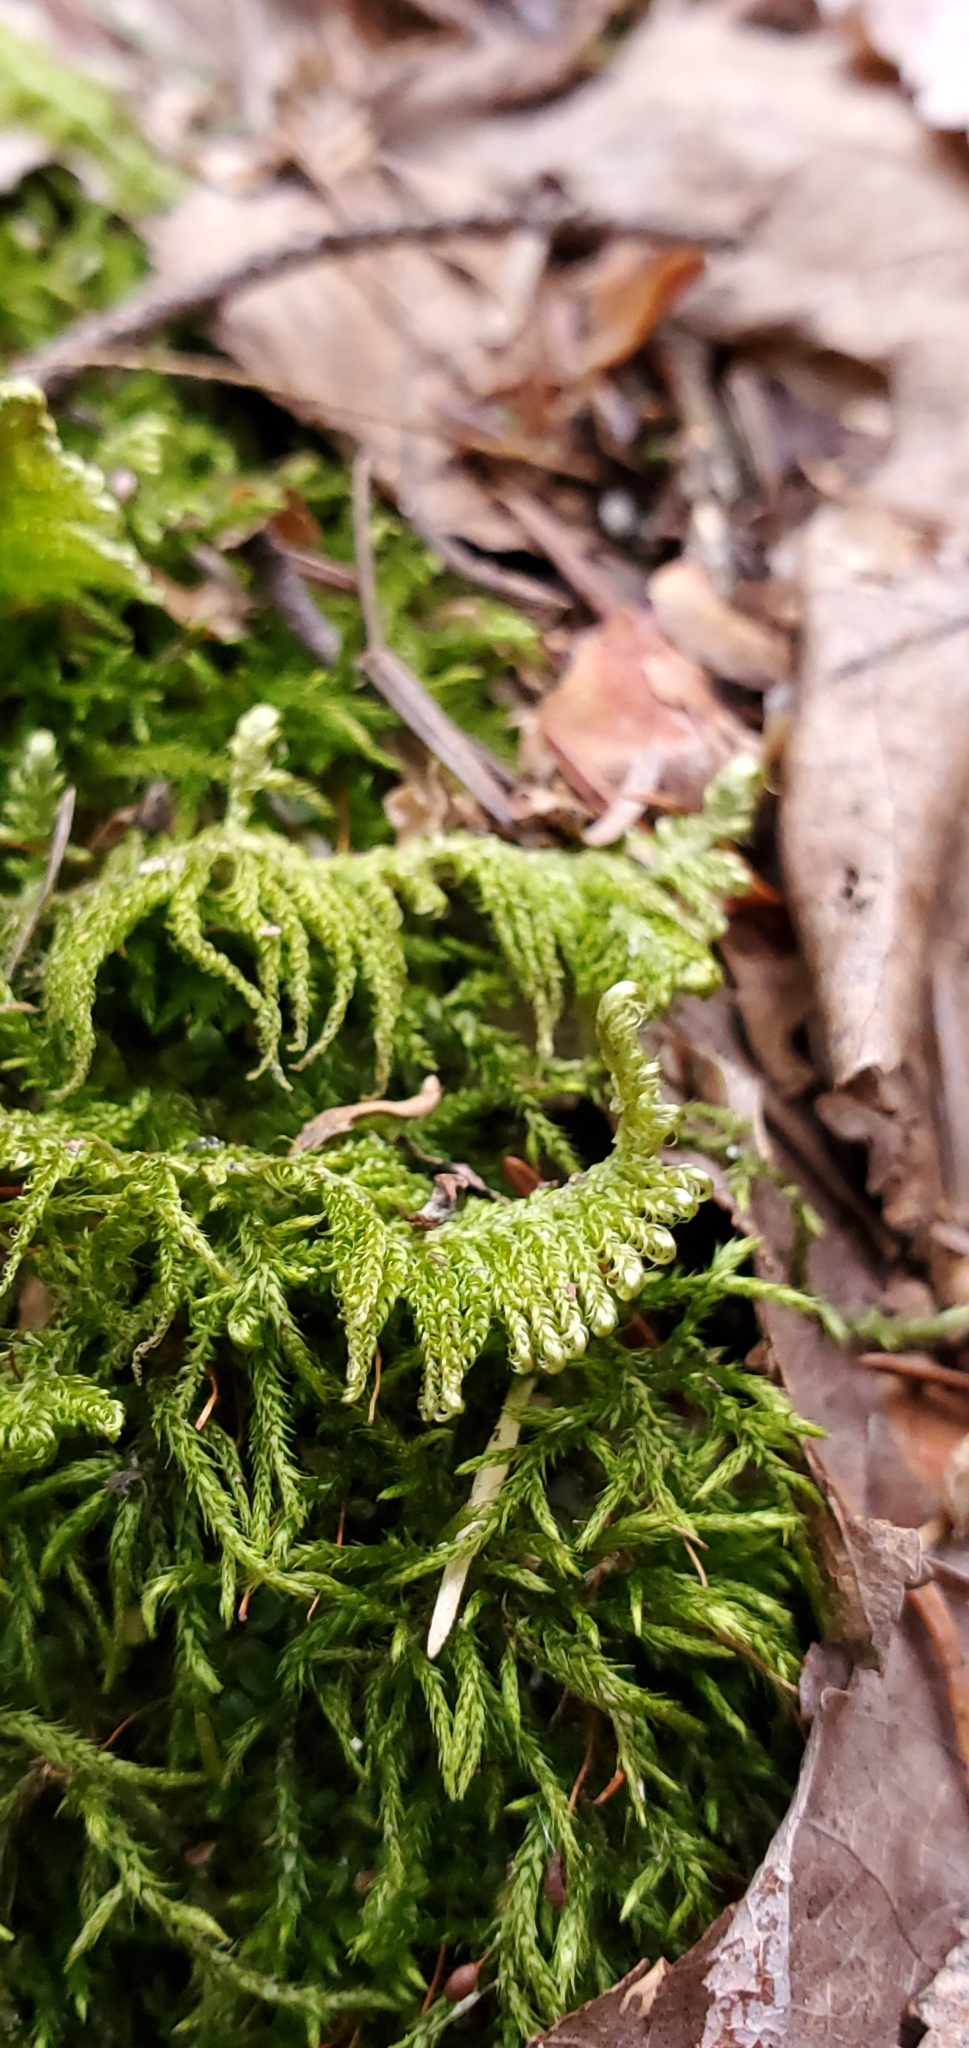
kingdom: Plantae
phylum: Bryophyta
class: Bryopsida
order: Hypnales
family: Pylaisiaceae
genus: Ptilium
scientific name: Ptilium crista-castrensis
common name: Knight's plume moss
